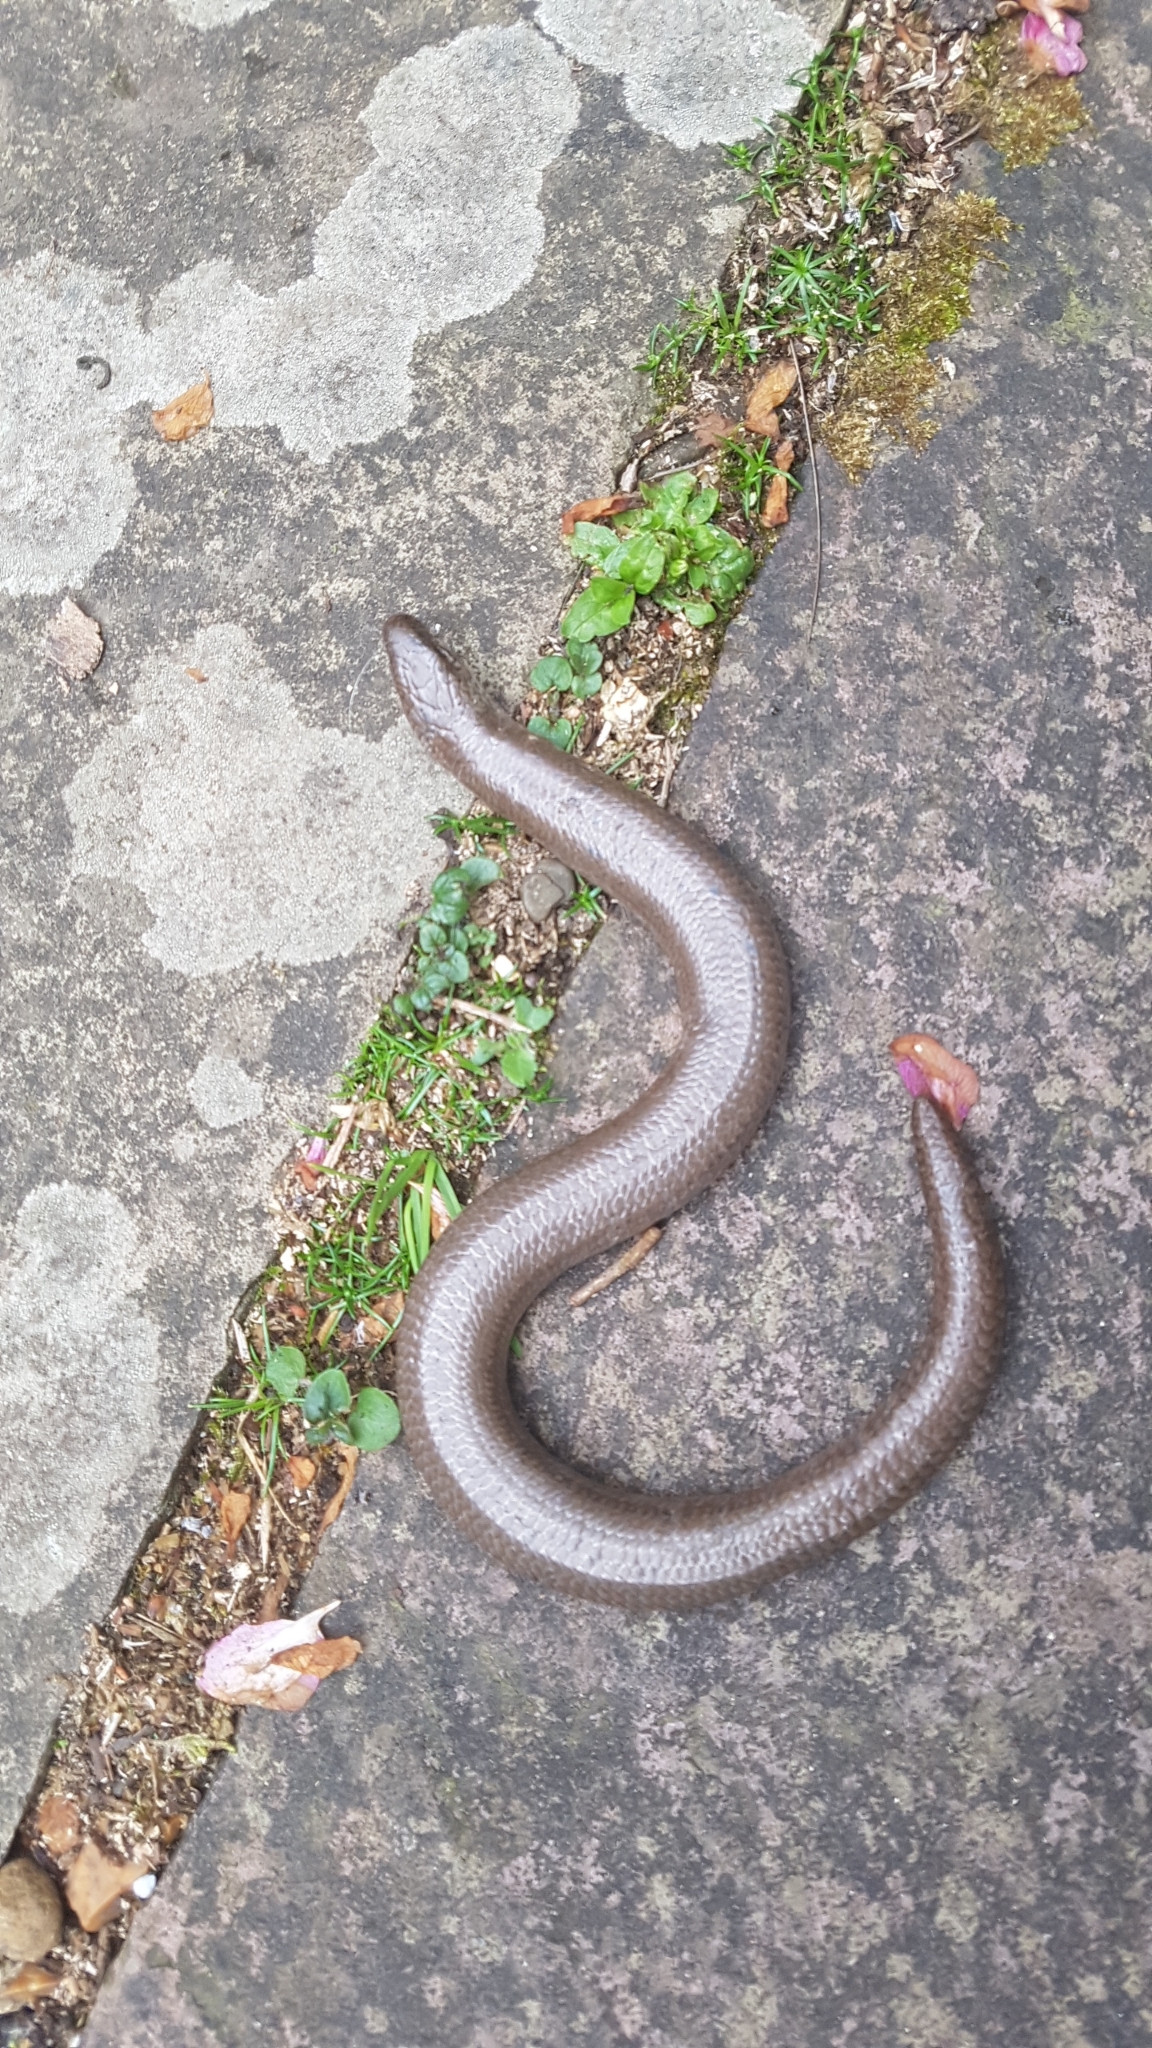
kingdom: Animalia
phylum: Chordata
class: Squamata
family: Anguidae
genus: Anguis
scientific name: Anguis fragilis
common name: Slow worm
